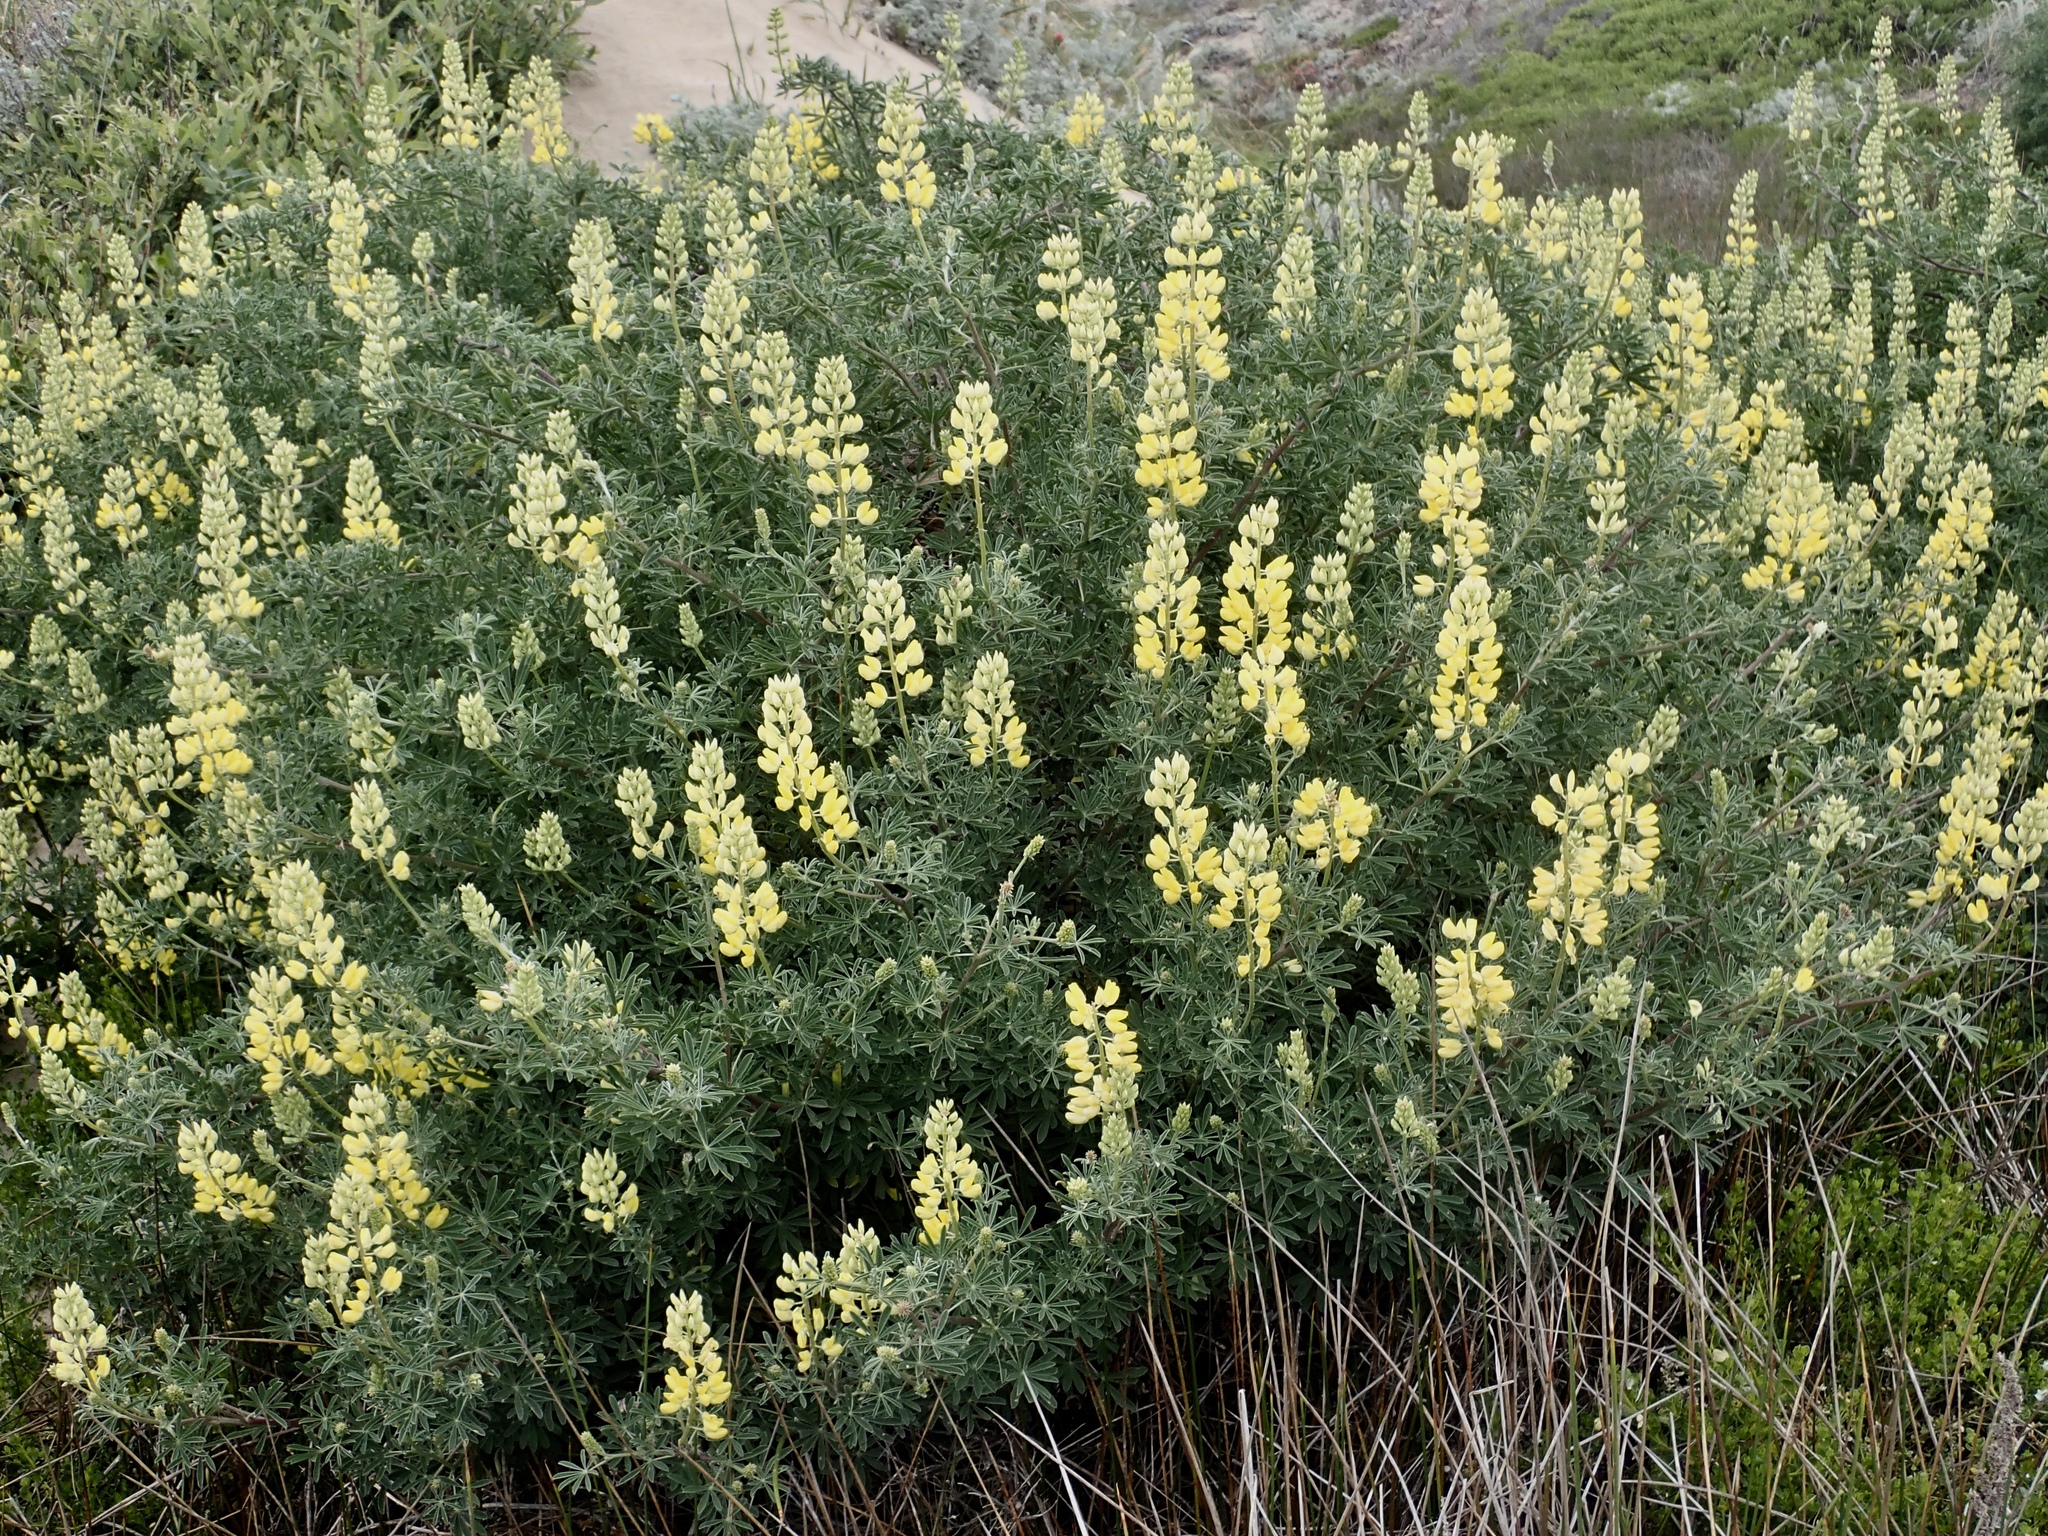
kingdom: Plantae
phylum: Tracheophyta
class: Magnoliopsida
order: Fabales
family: Fabaceae
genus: Lupinus
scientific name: Lupinus arboreus
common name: Yellow bush lupine
